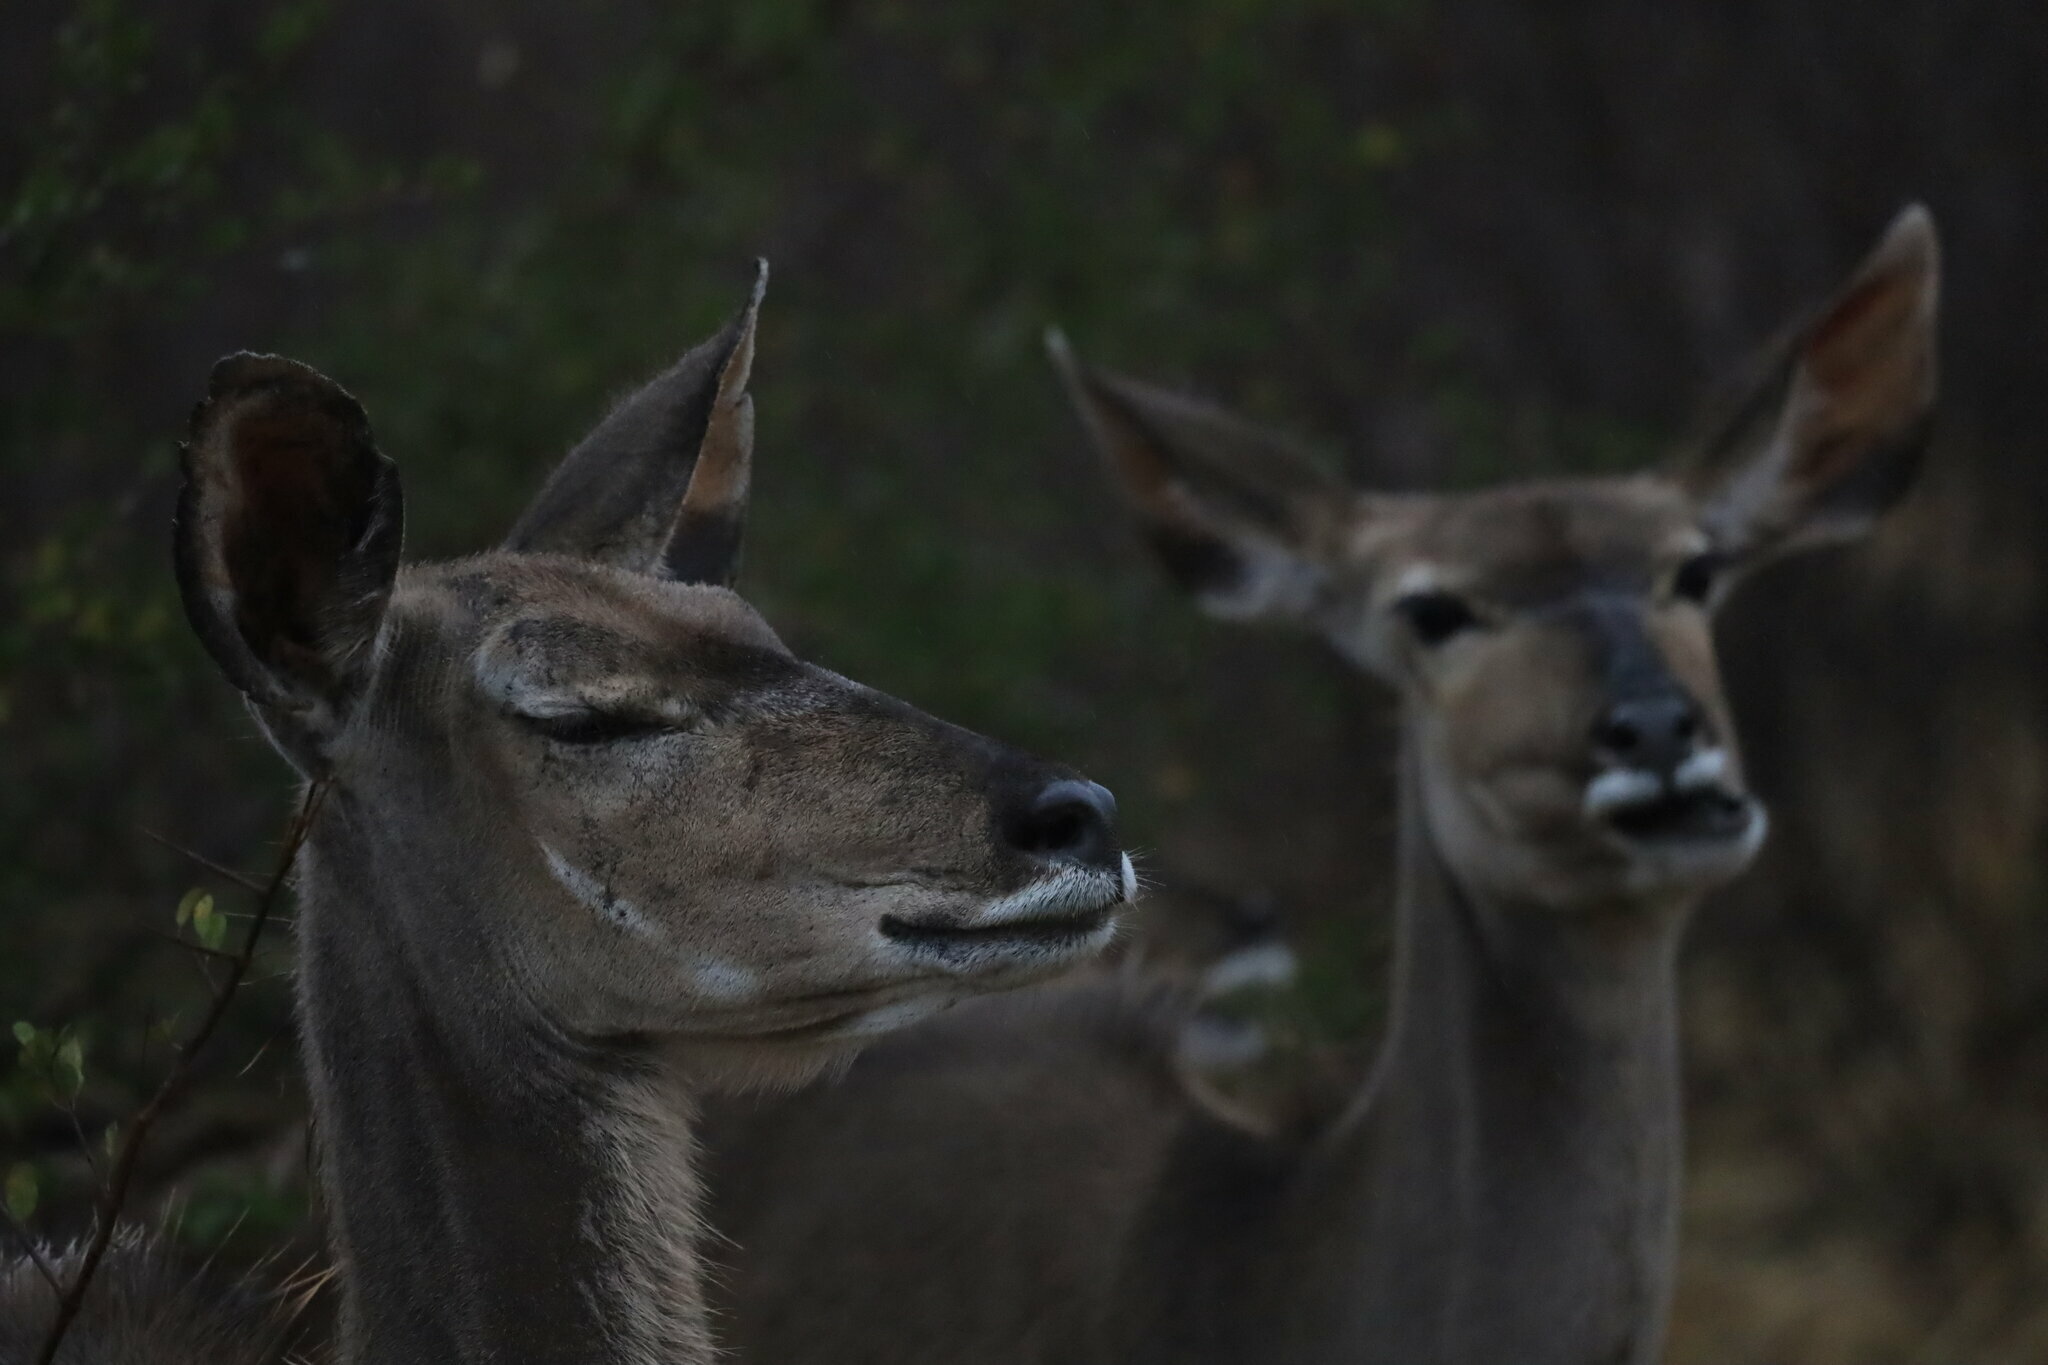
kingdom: Animalia
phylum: Chordata
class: Mammalia
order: Artiodactyla
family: Bovidae
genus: Tragelaphus
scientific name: Tragelaphus strepsiceros
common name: Greater kudu
